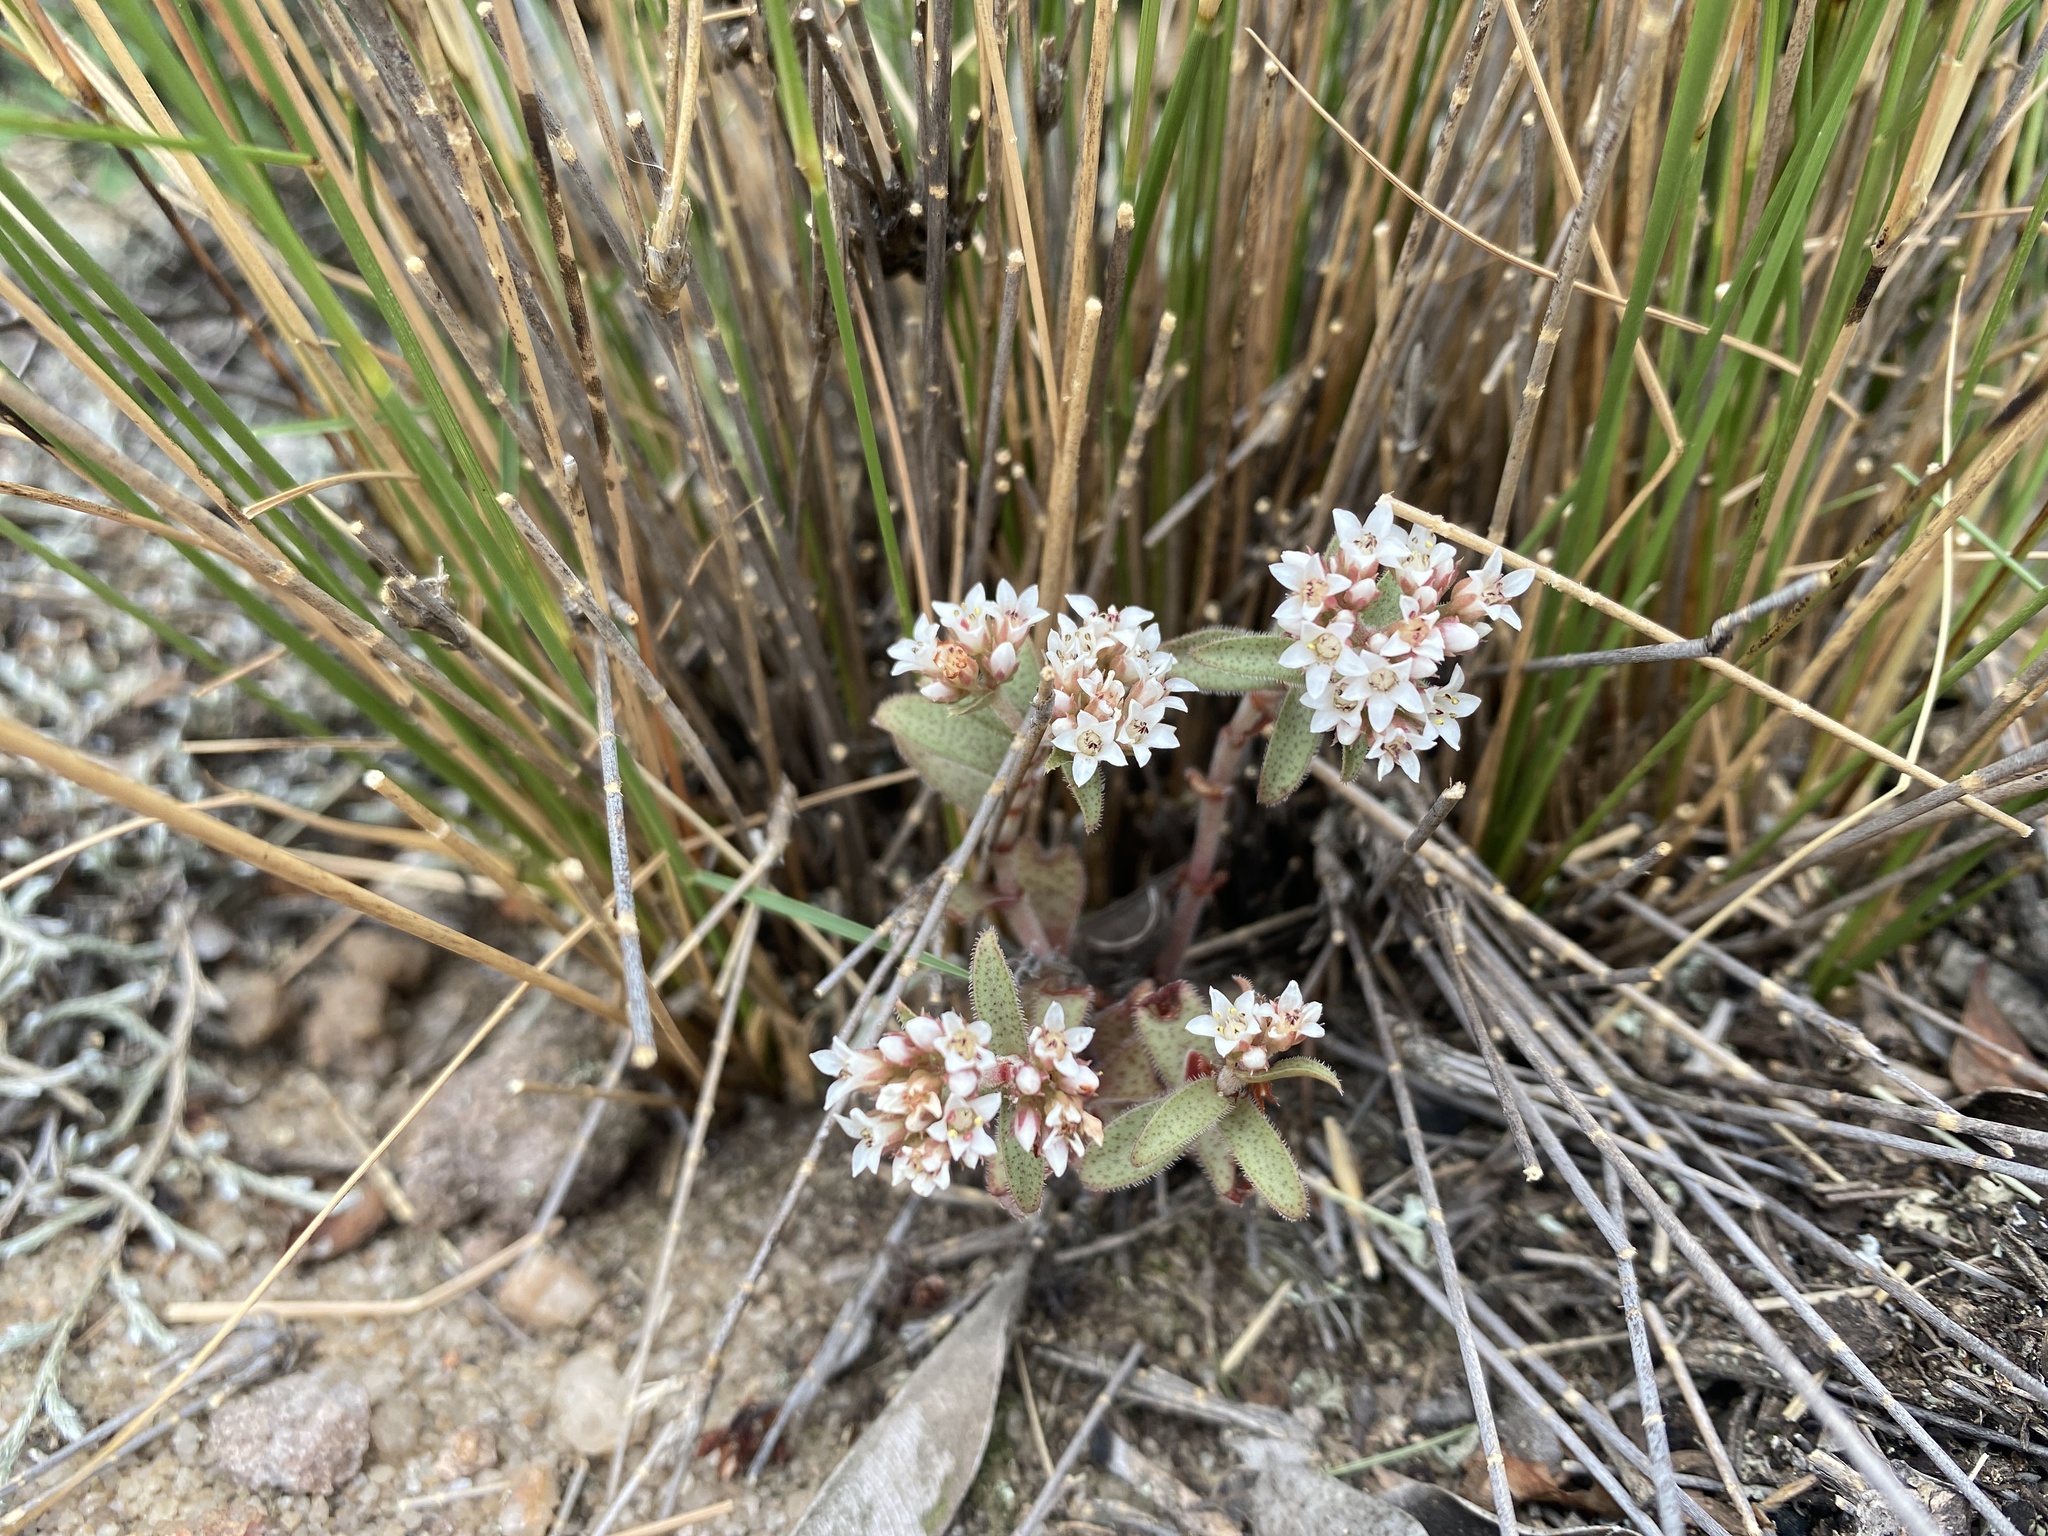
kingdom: Plantae
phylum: Tracheophyta
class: Magnoliopsida
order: Saxifragales
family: Crassulaceae
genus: Crassula
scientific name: Crassula setulosa
